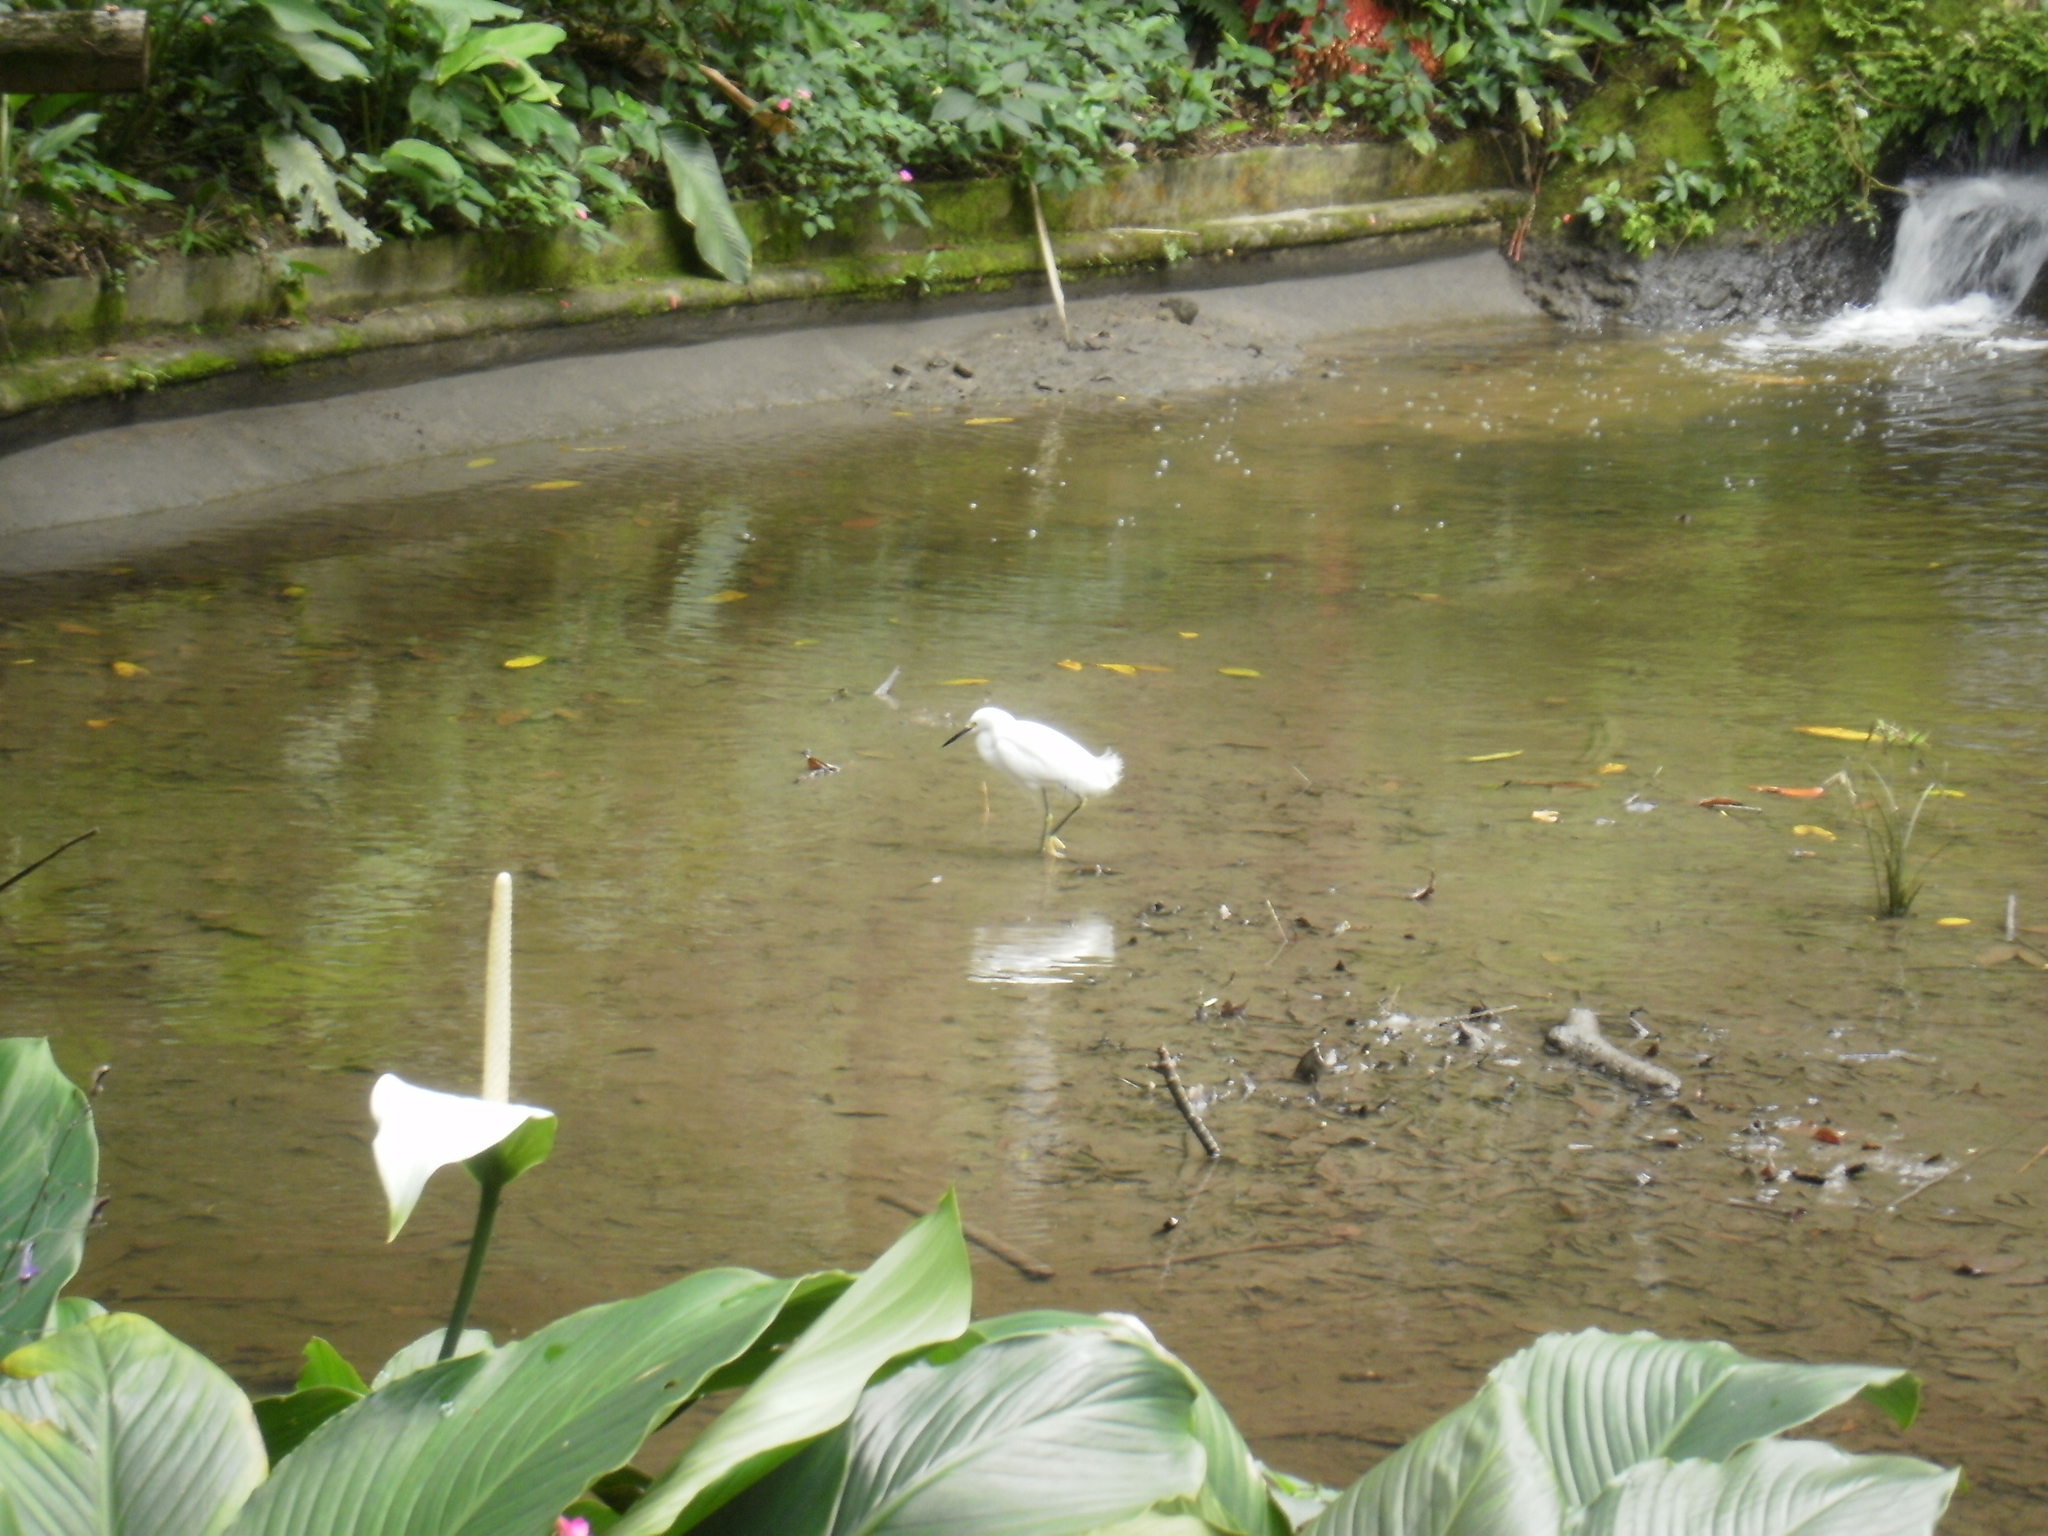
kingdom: Animalia
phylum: Chordata
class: Aves
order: Pelecaniformes
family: Ardeidae
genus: Egretta
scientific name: Egretta thula
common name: Snowy egret
